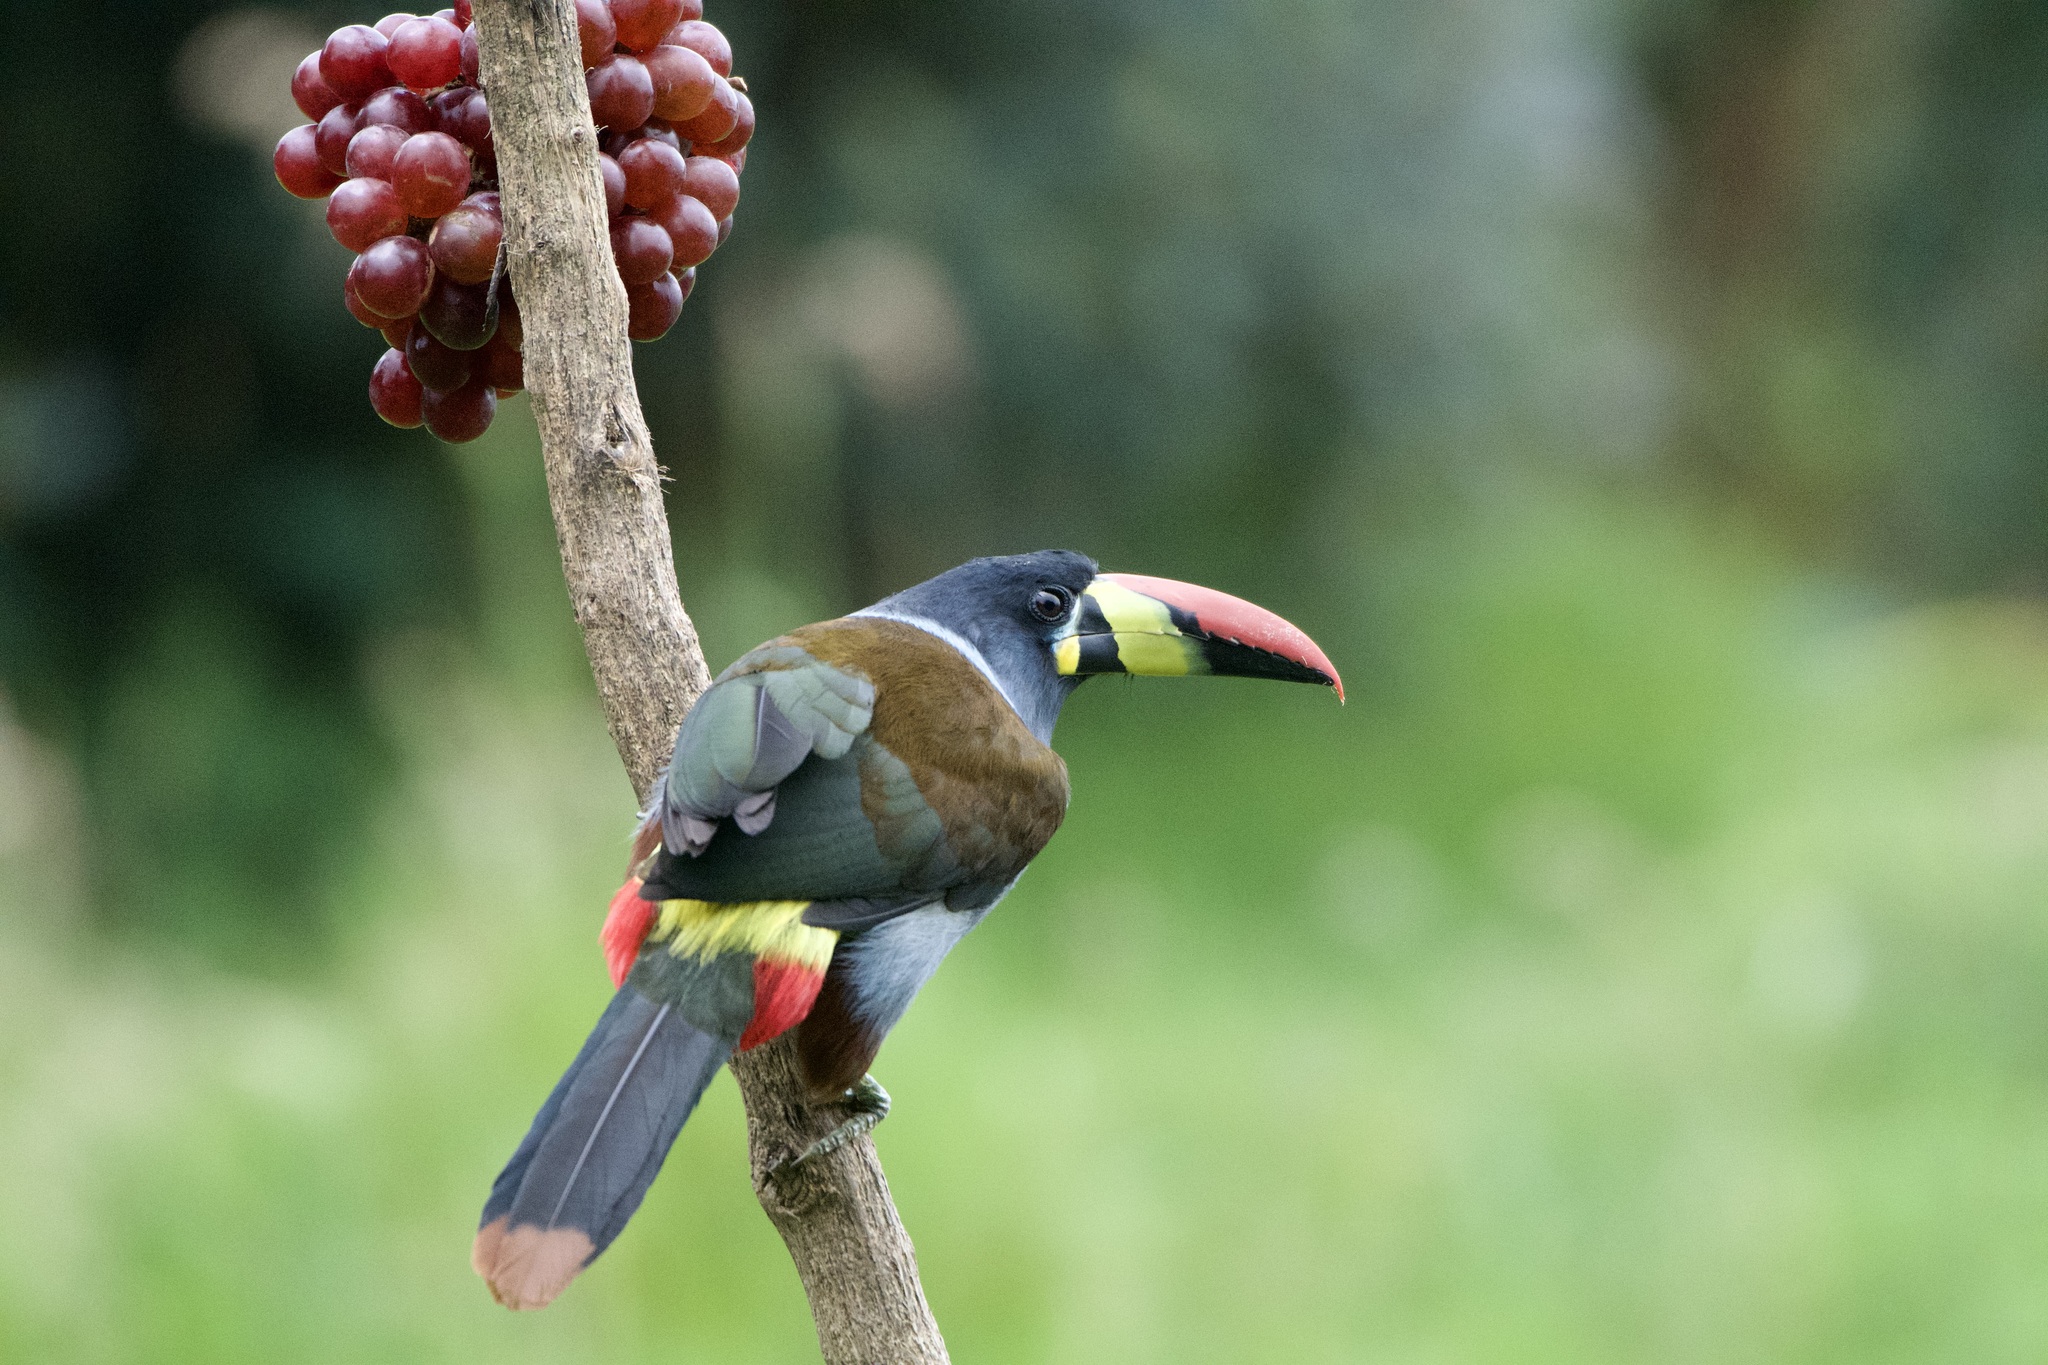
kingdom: Animalia
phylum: Chordata
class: Aves
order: Piciformes
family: Ramphastidae
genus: Andigena
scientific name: Andigena hypoglauca
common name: Grey-breasted mountain toucan
